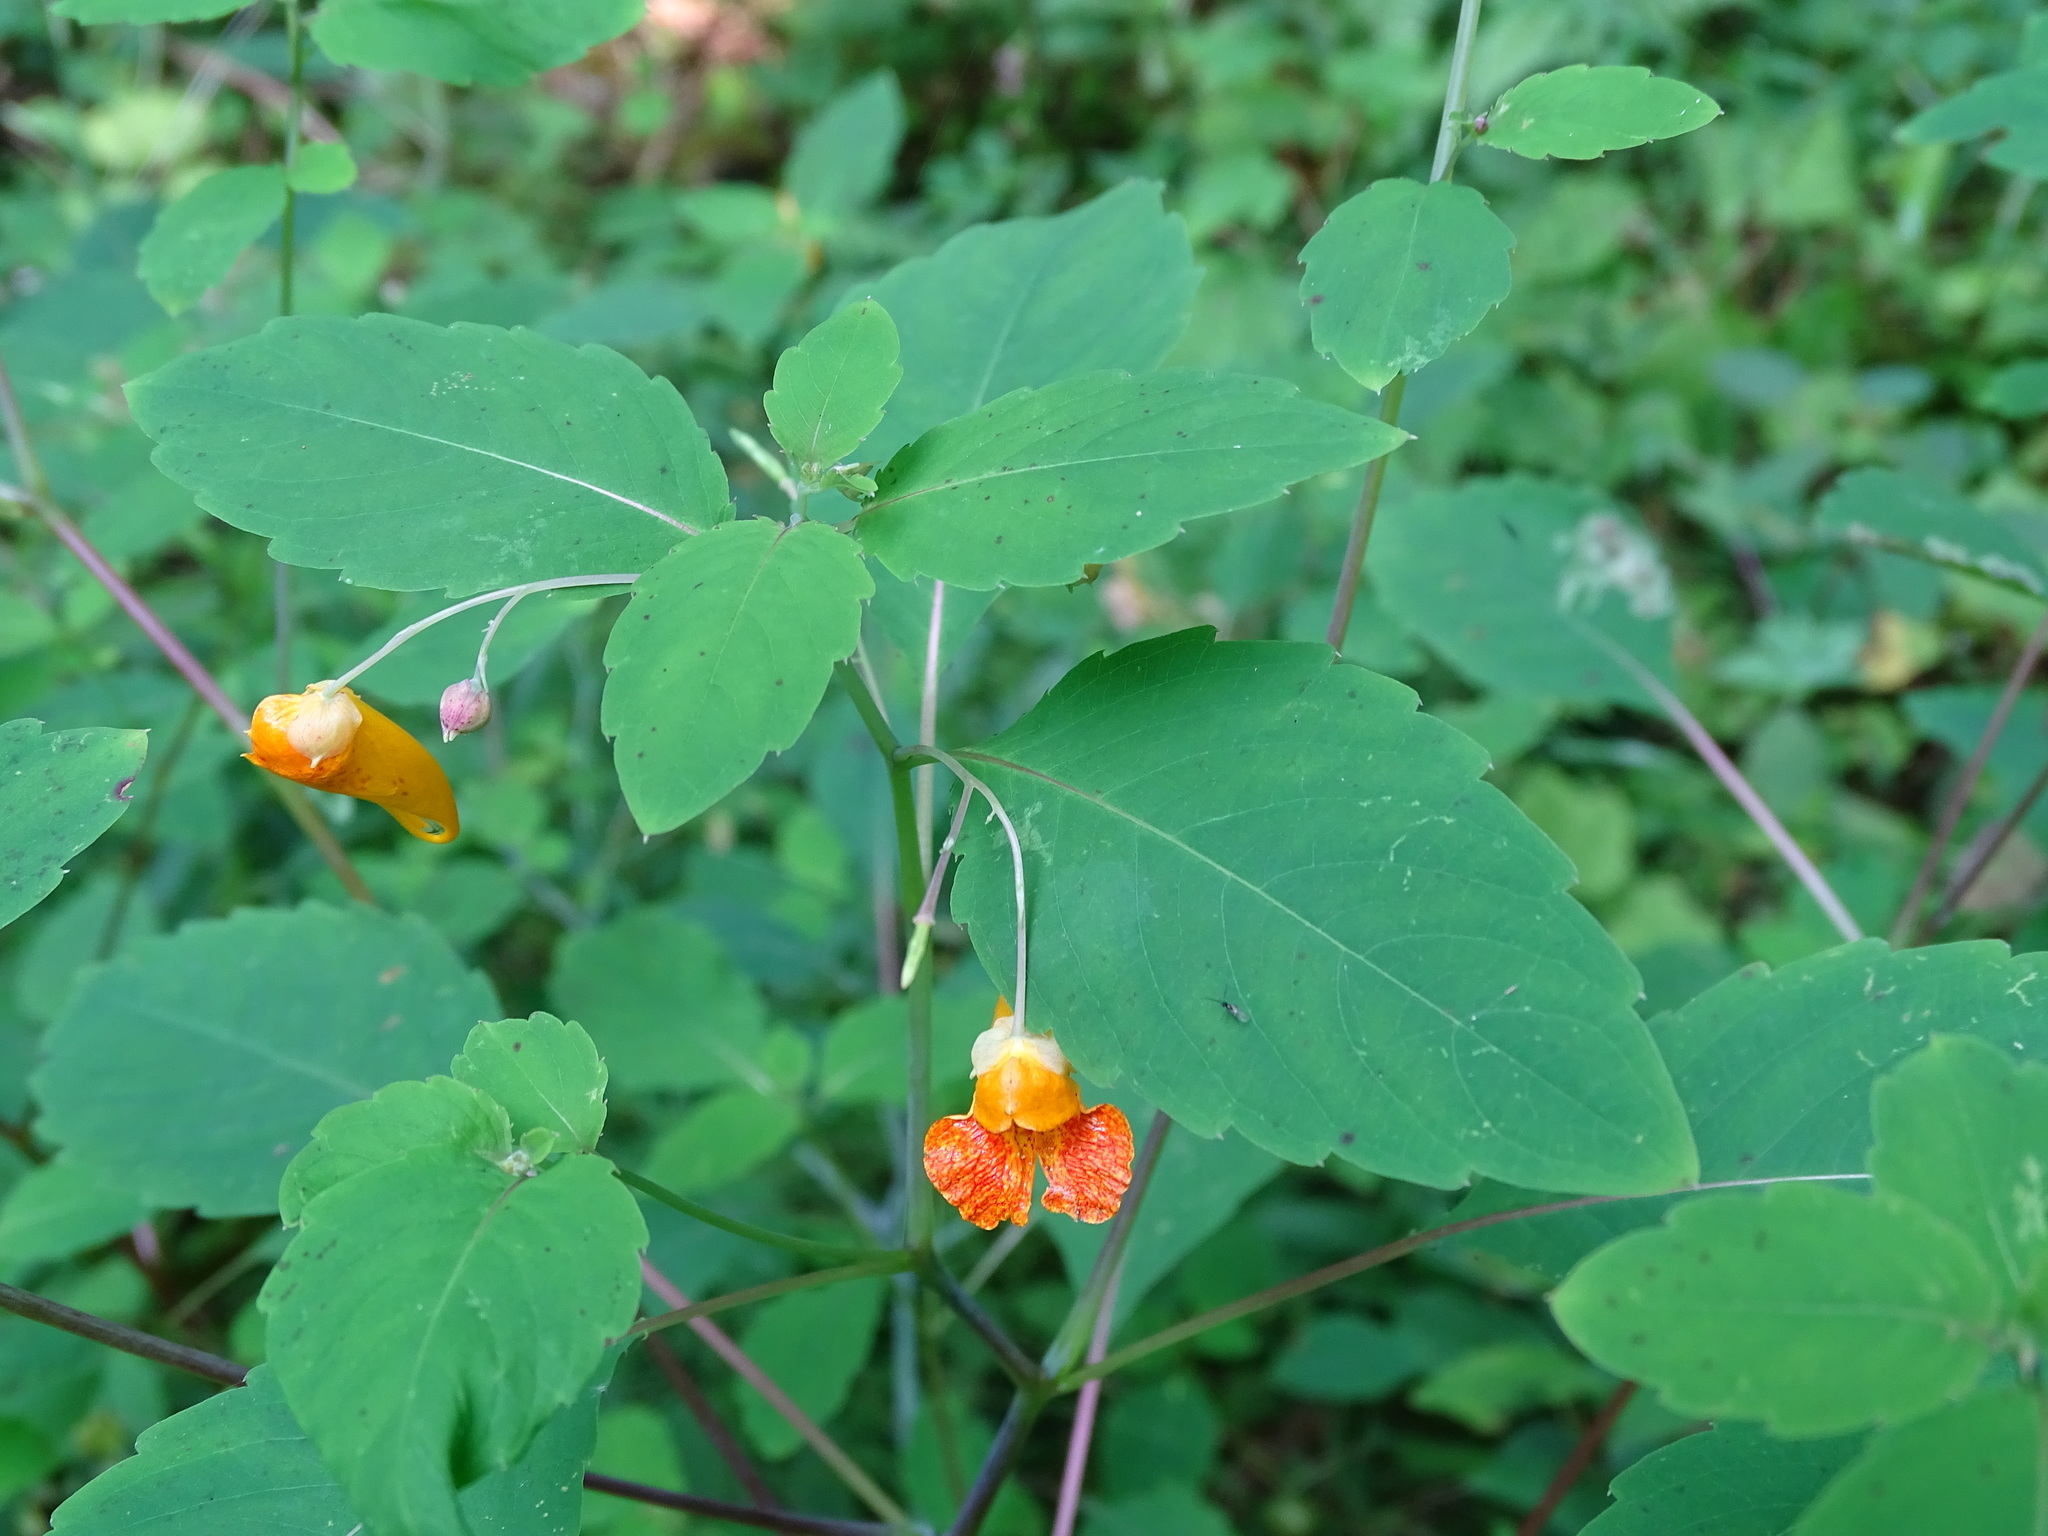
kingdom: Plantae
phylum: Tracheophyta
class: Magnoliopsida
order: Ericales
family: Balsaminaceae
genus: Impatiens
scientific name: Impatiens capensis
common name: Orange balsam
